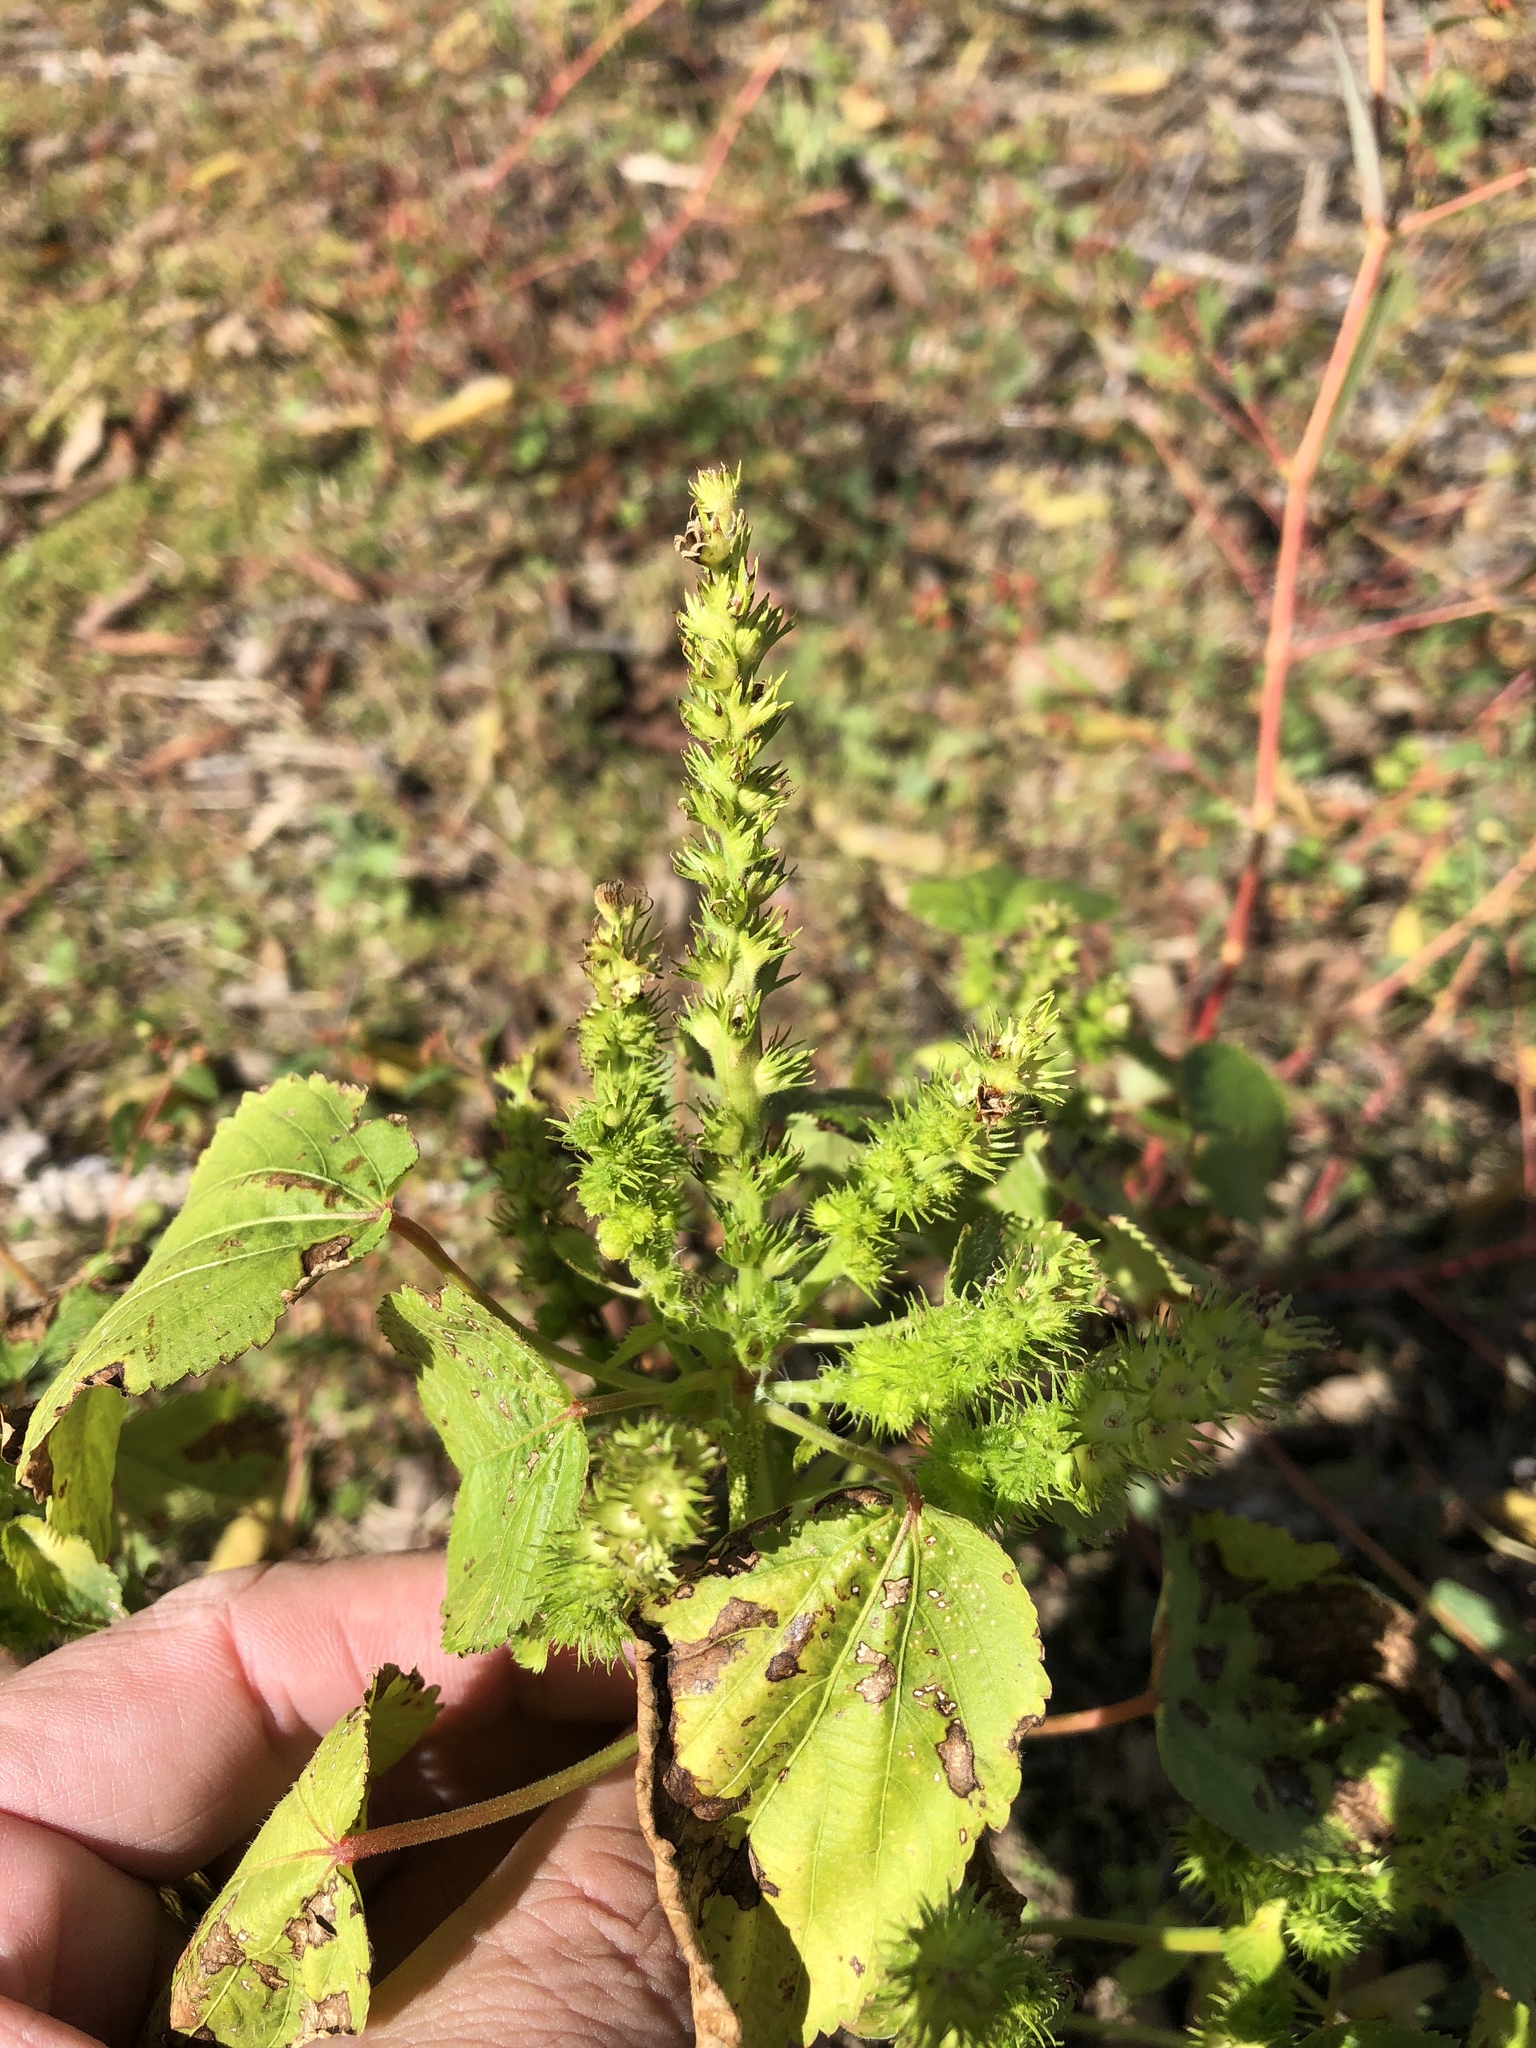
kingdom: Plantae
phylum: Tracheophyta
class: Magnoliopsida
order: Malpighiales
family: Euphorbiaceae
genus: Acalypha
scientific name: Acalypha ostryifolia
